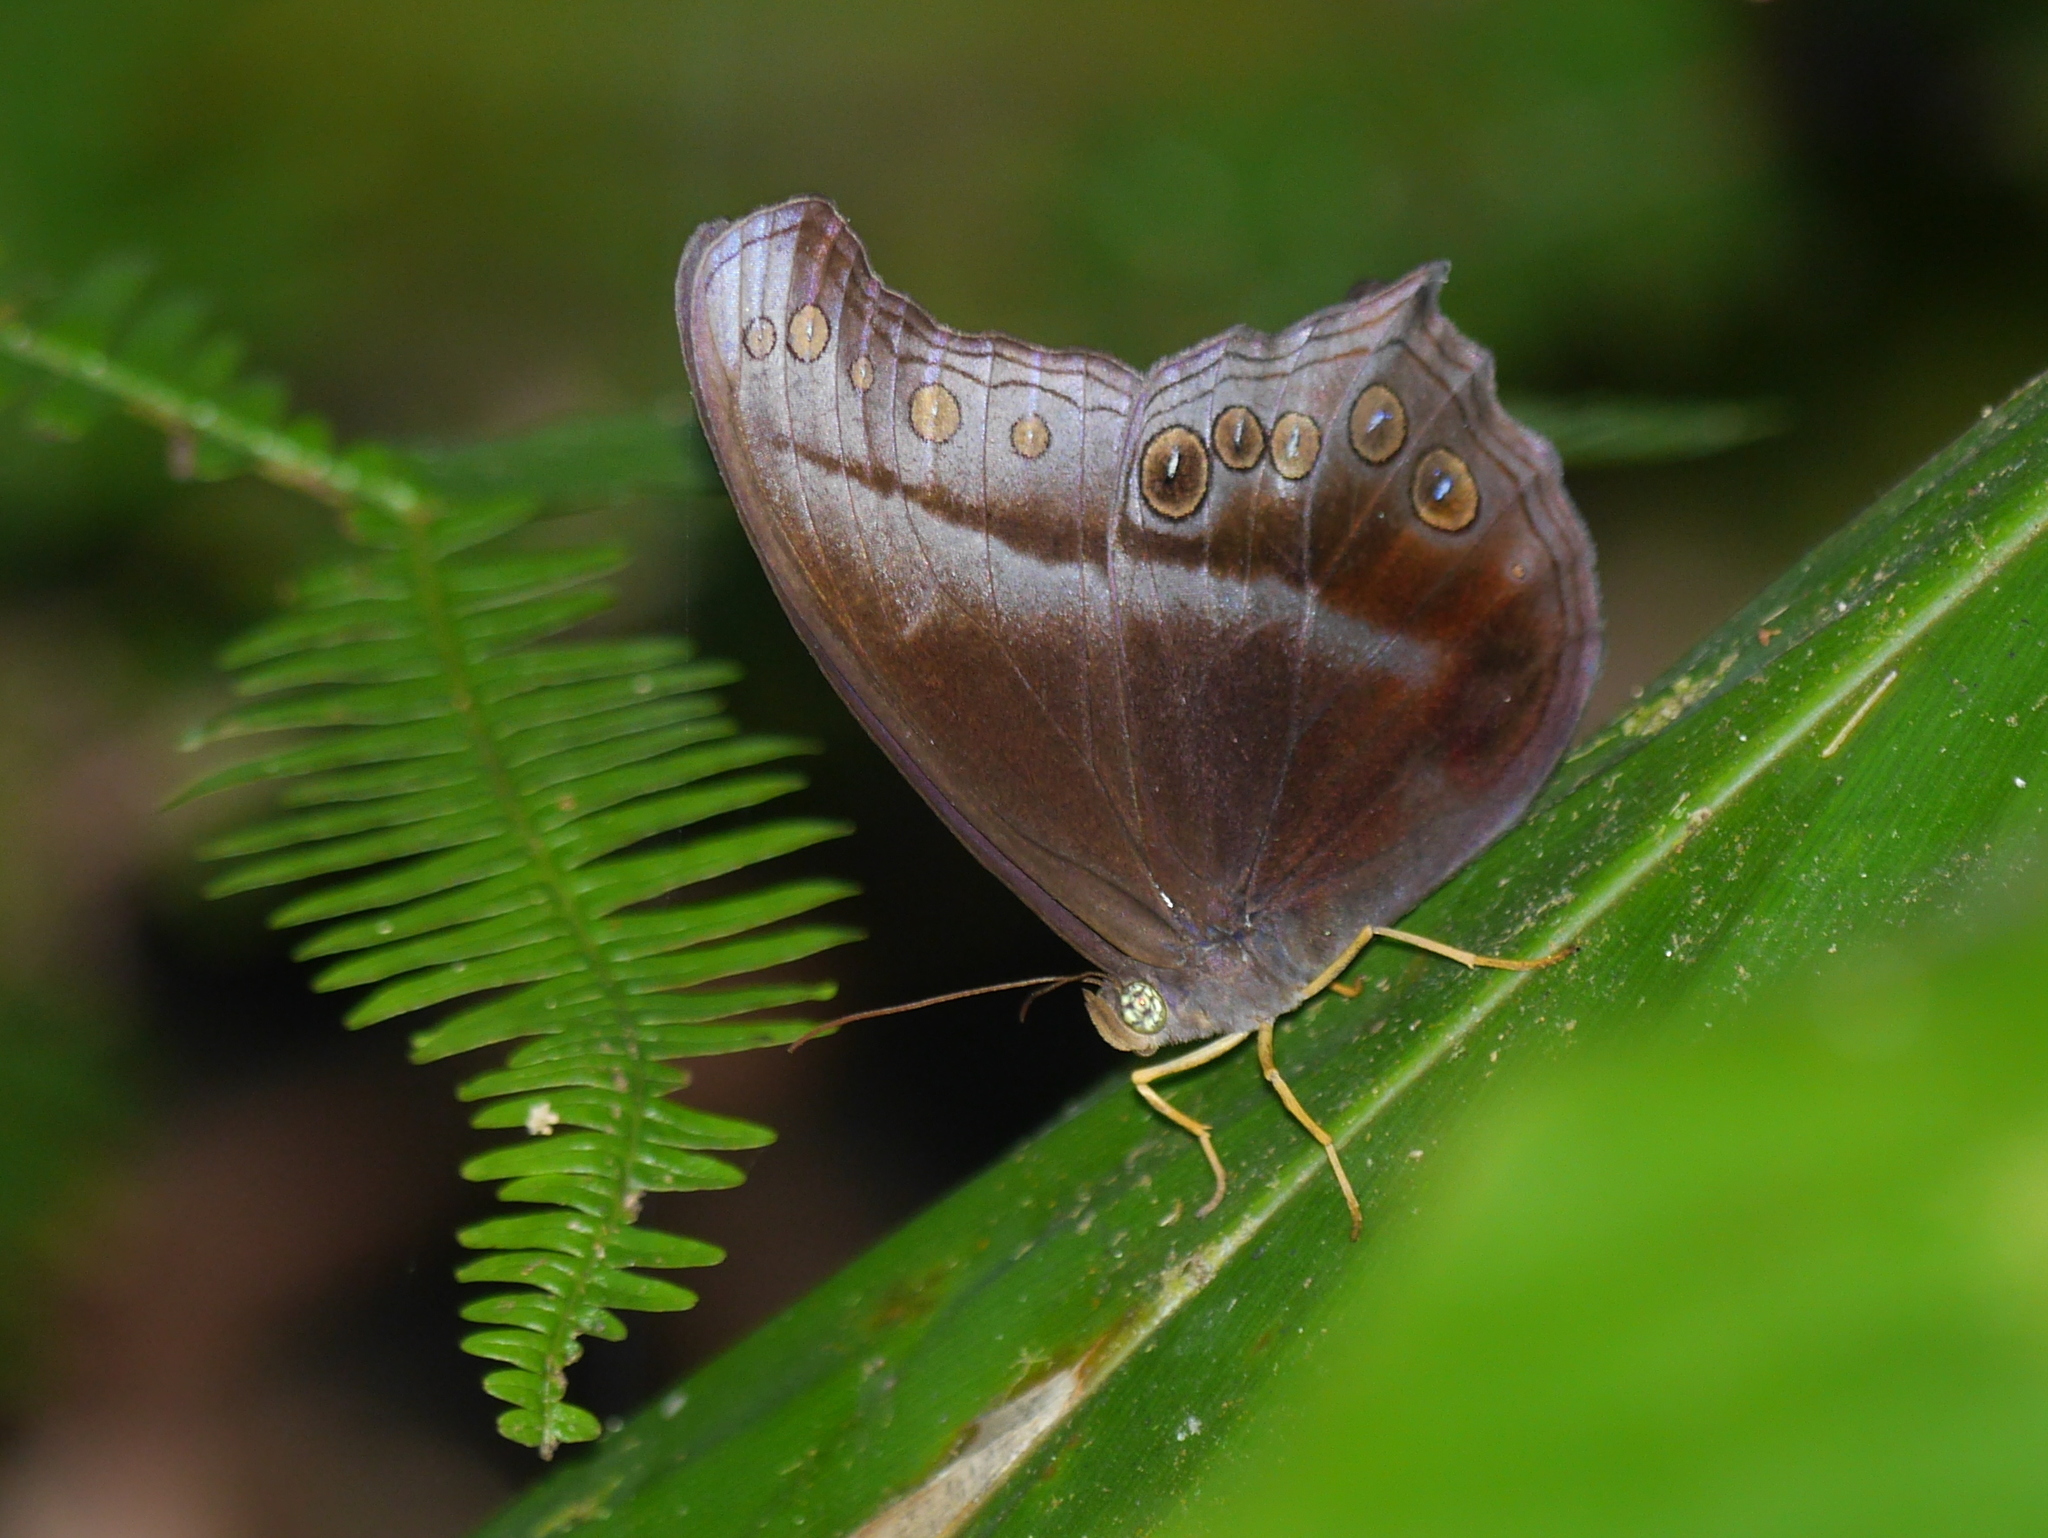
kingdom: Animalia
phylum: Arthropoda
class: Insecta
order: Lepidoptera
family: Nymphalidae
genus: Coelites
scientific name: Coelites epiminthia
